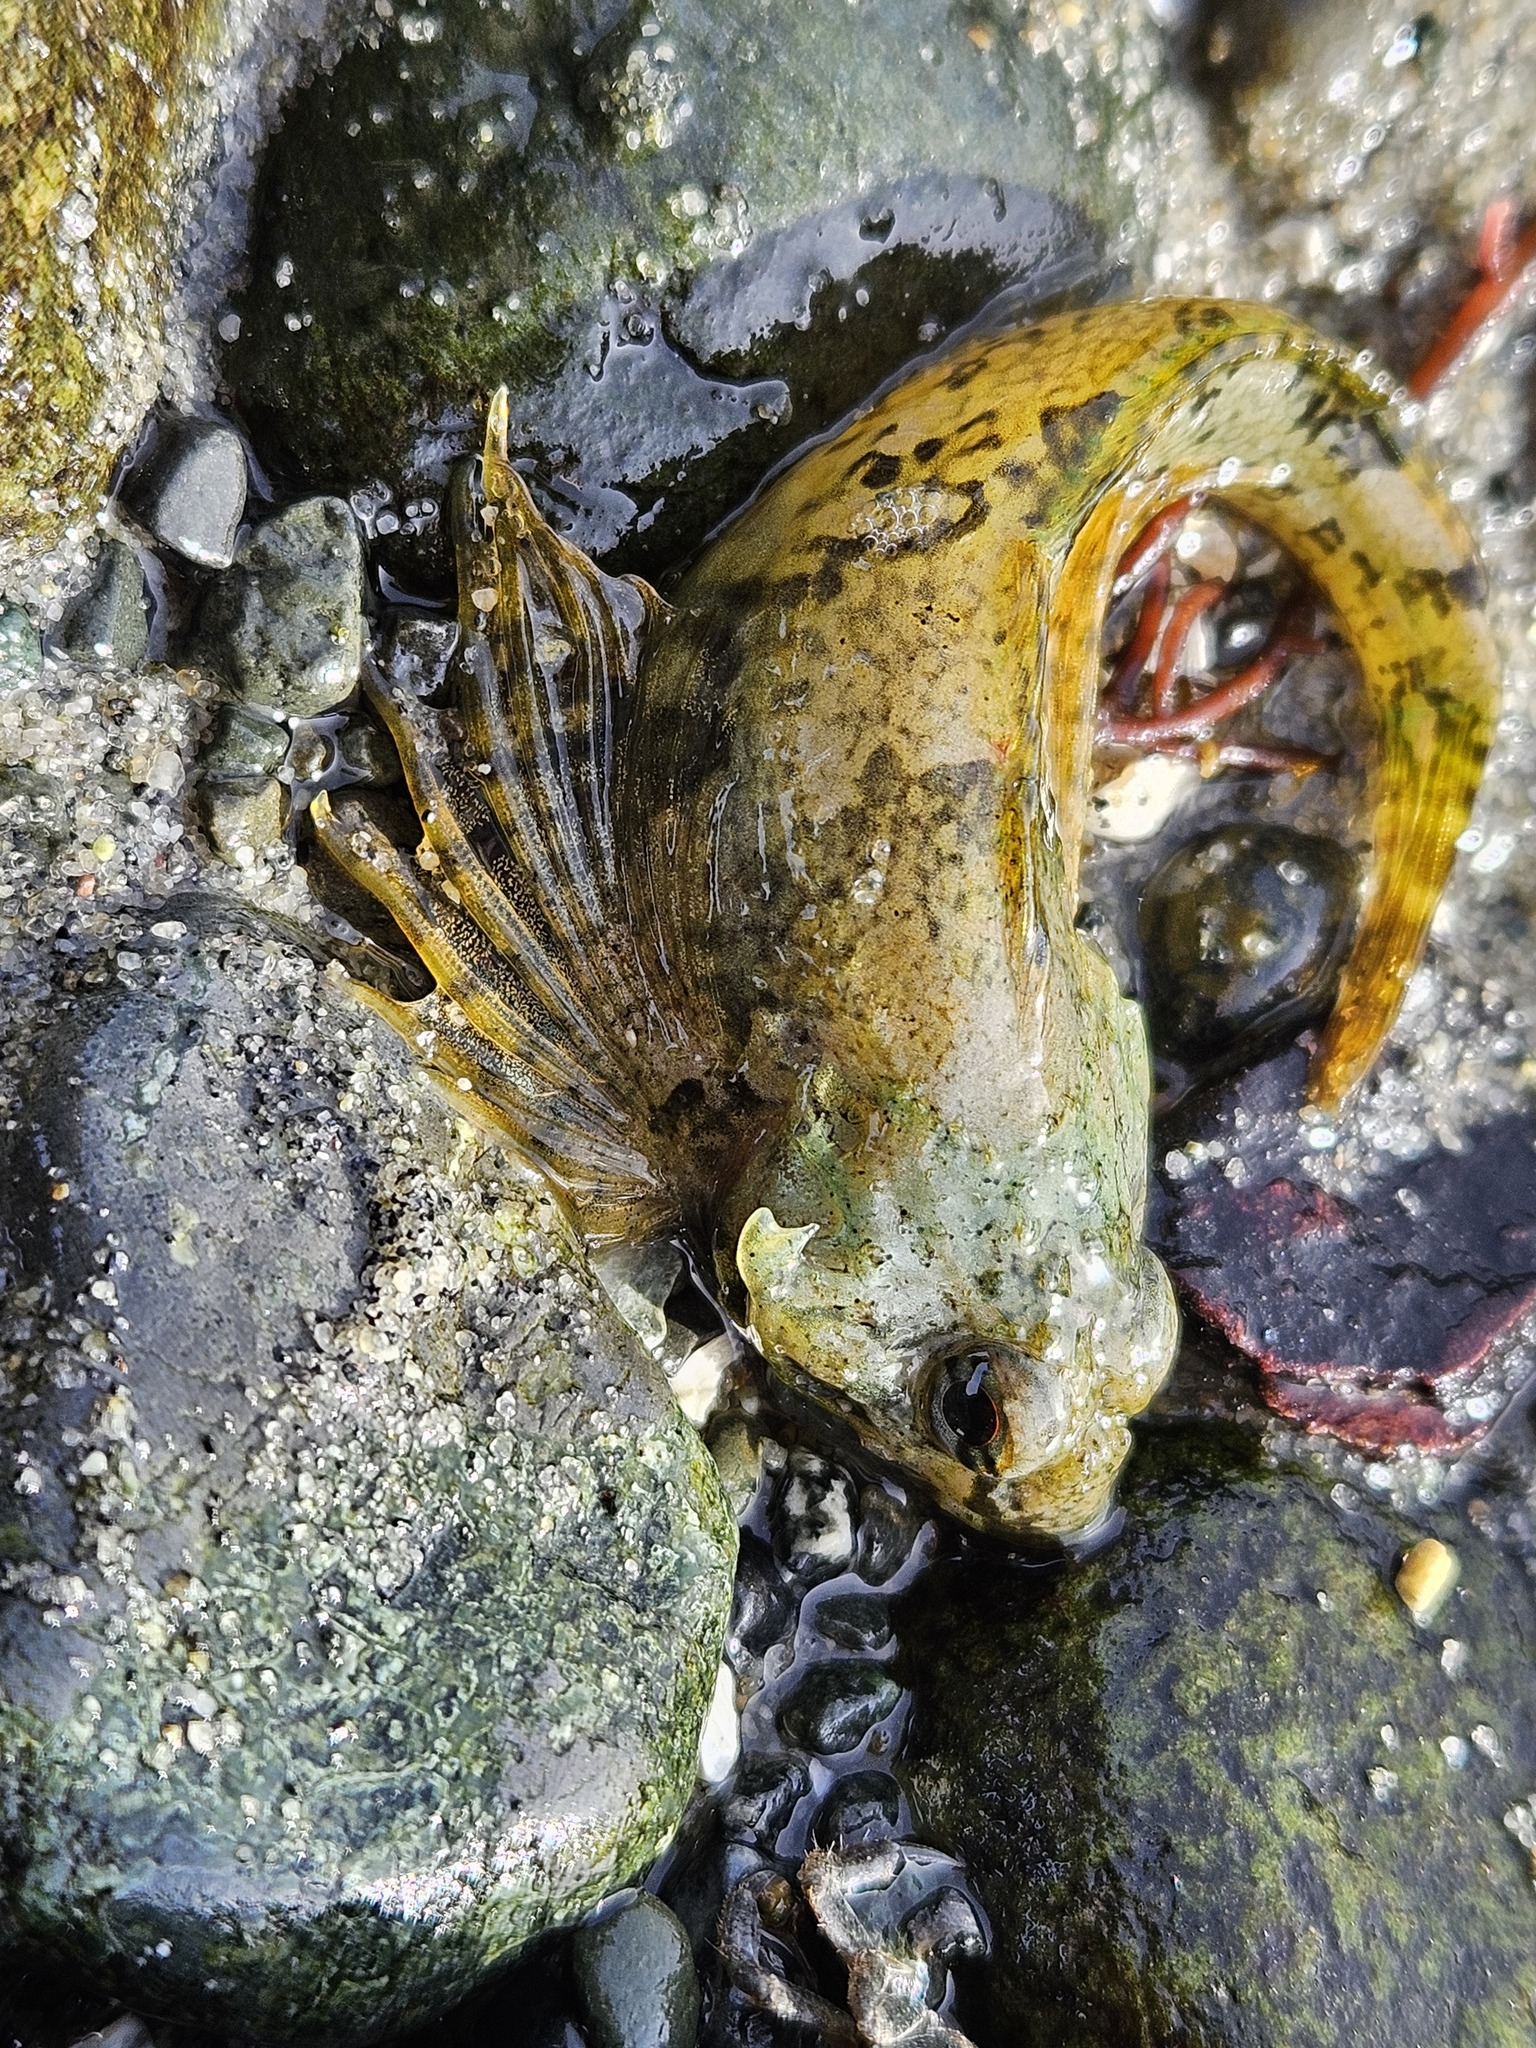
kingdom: Animalia
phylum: Chordata
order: Scorpaeniformes
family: Cottidae
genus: Oligocottus
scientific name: Oligocottus maculosus
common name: Tidepool sculpin
